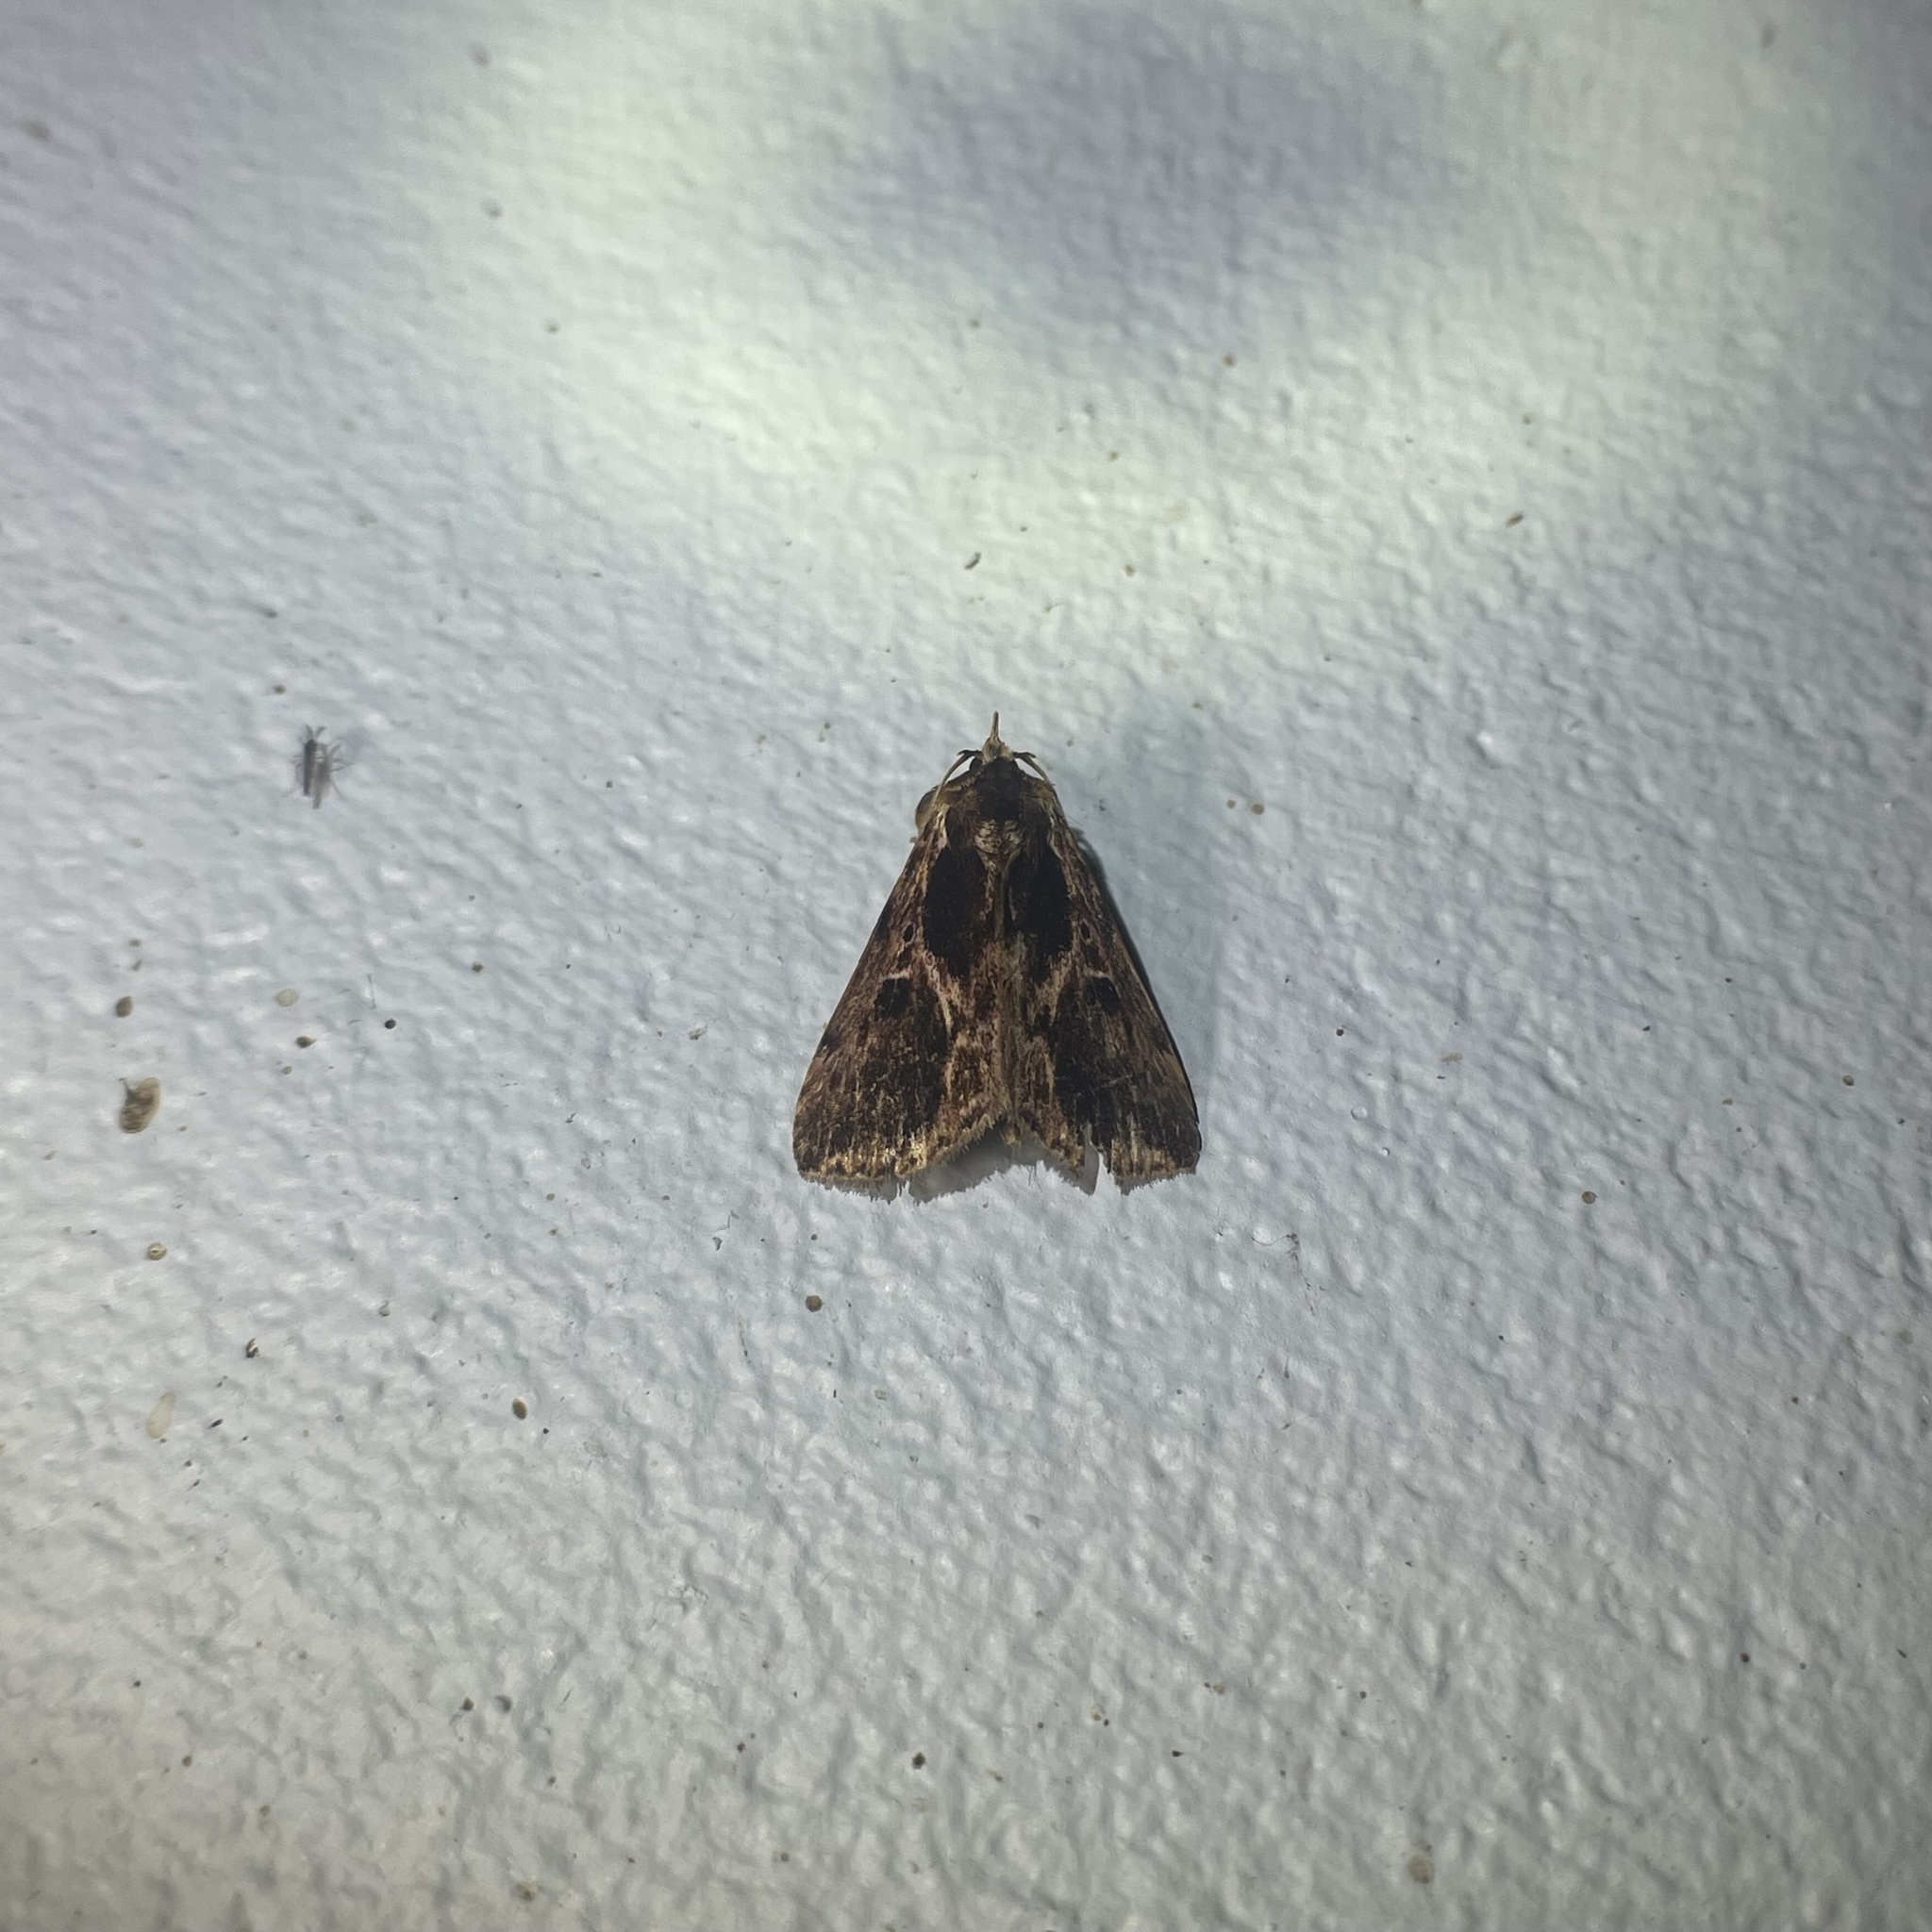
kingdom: Animalia
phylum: Arthropoda
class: Insecta
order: Lepidoptera
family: Erebidae
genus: Coeriana
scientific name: Coeriana malonia
